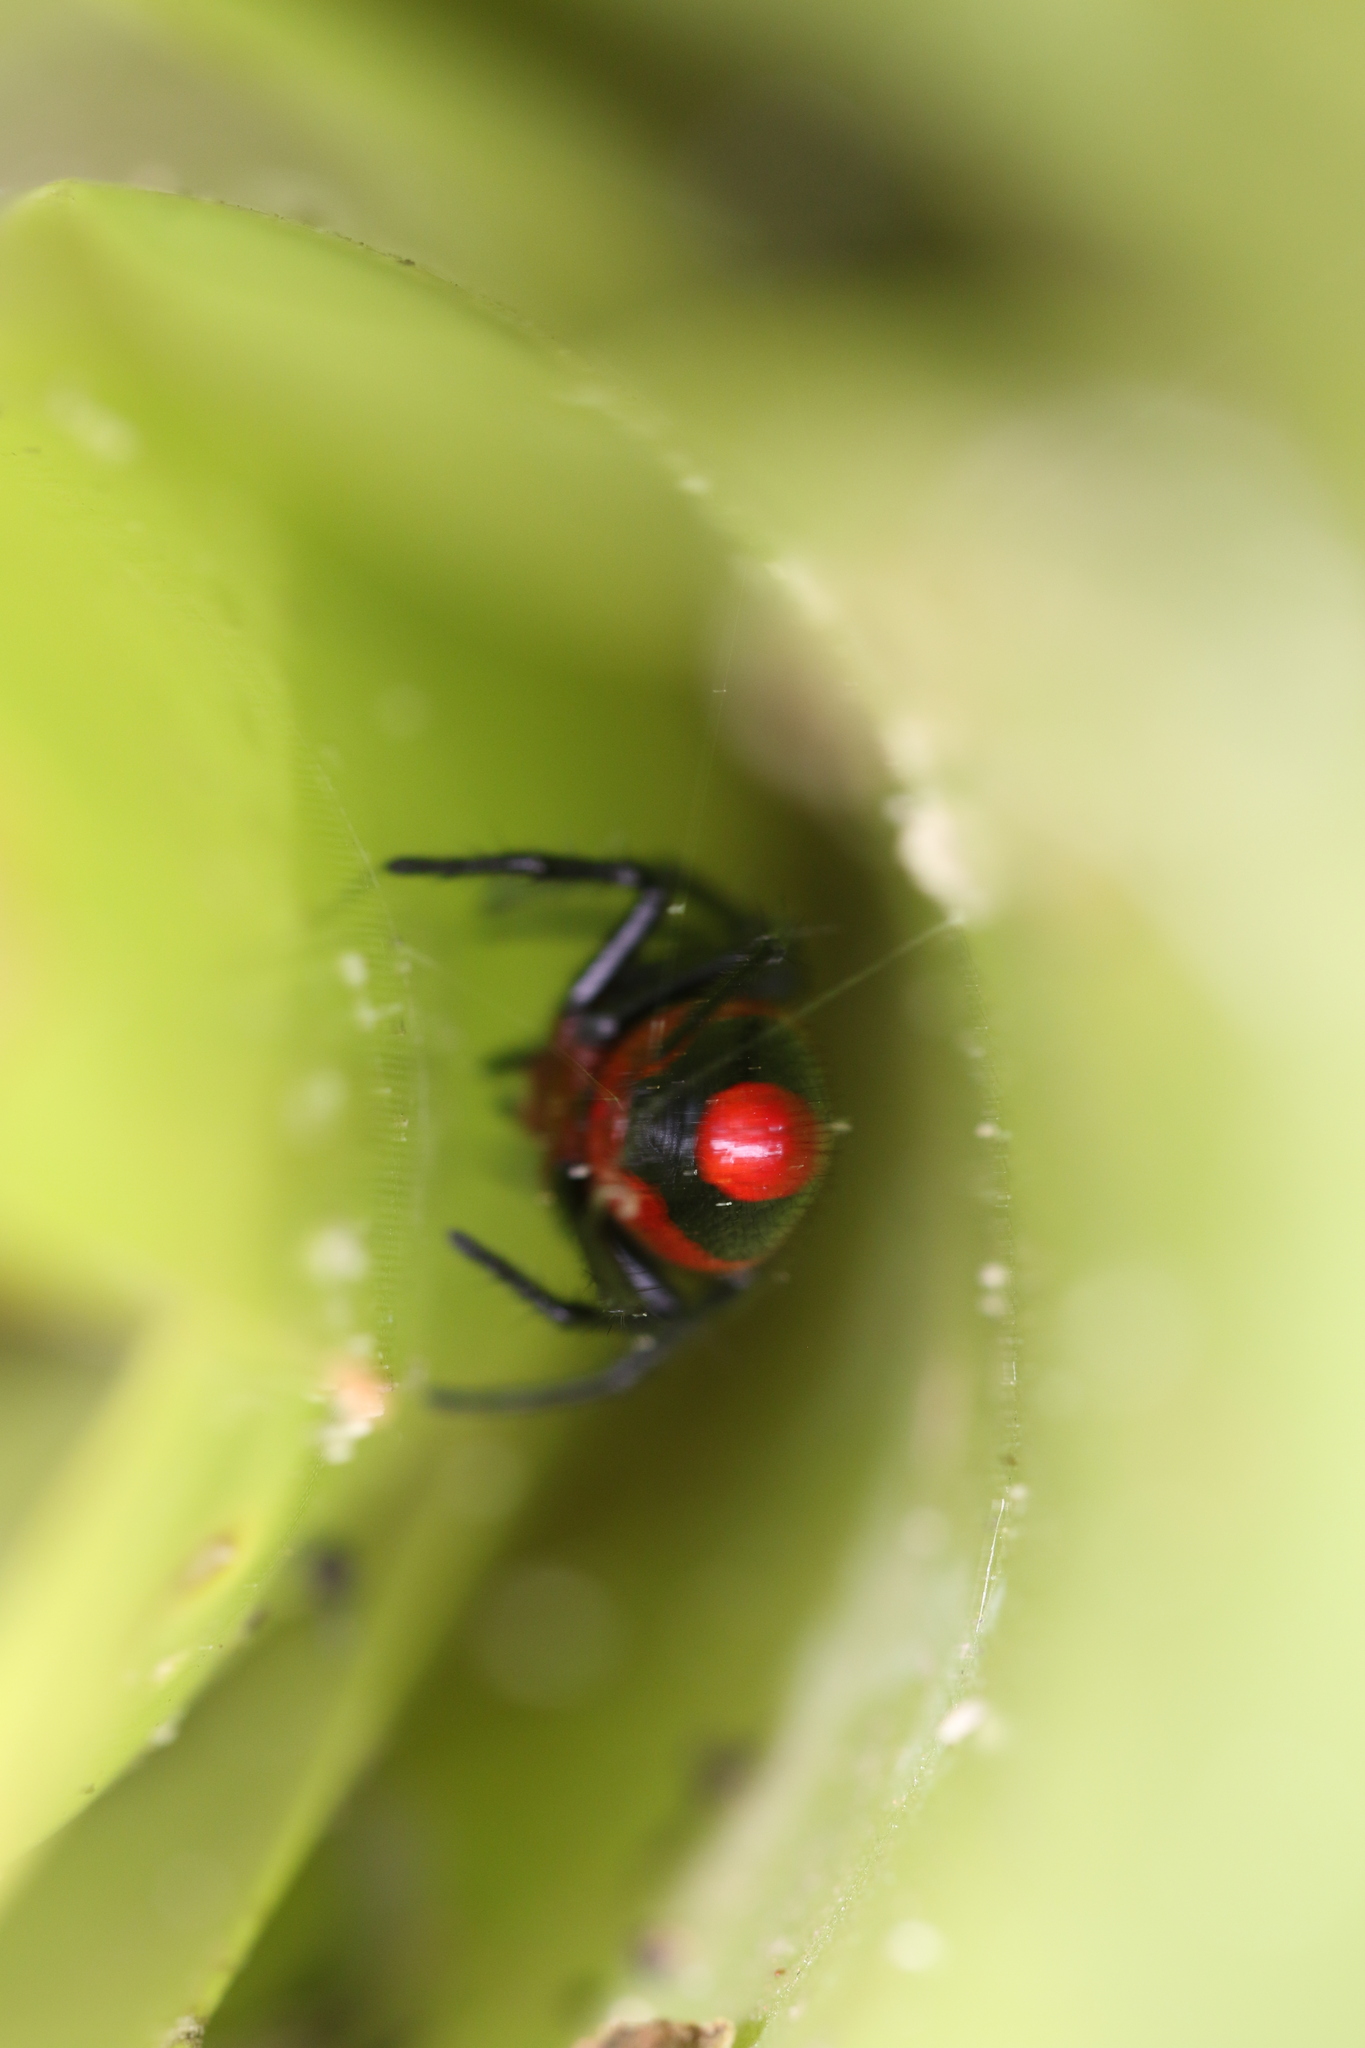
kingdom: Animalia
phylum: Arthropoda
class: Arachnida
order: Araneae
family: Araneidae
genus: Alpaida
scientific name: Alpaida angra
